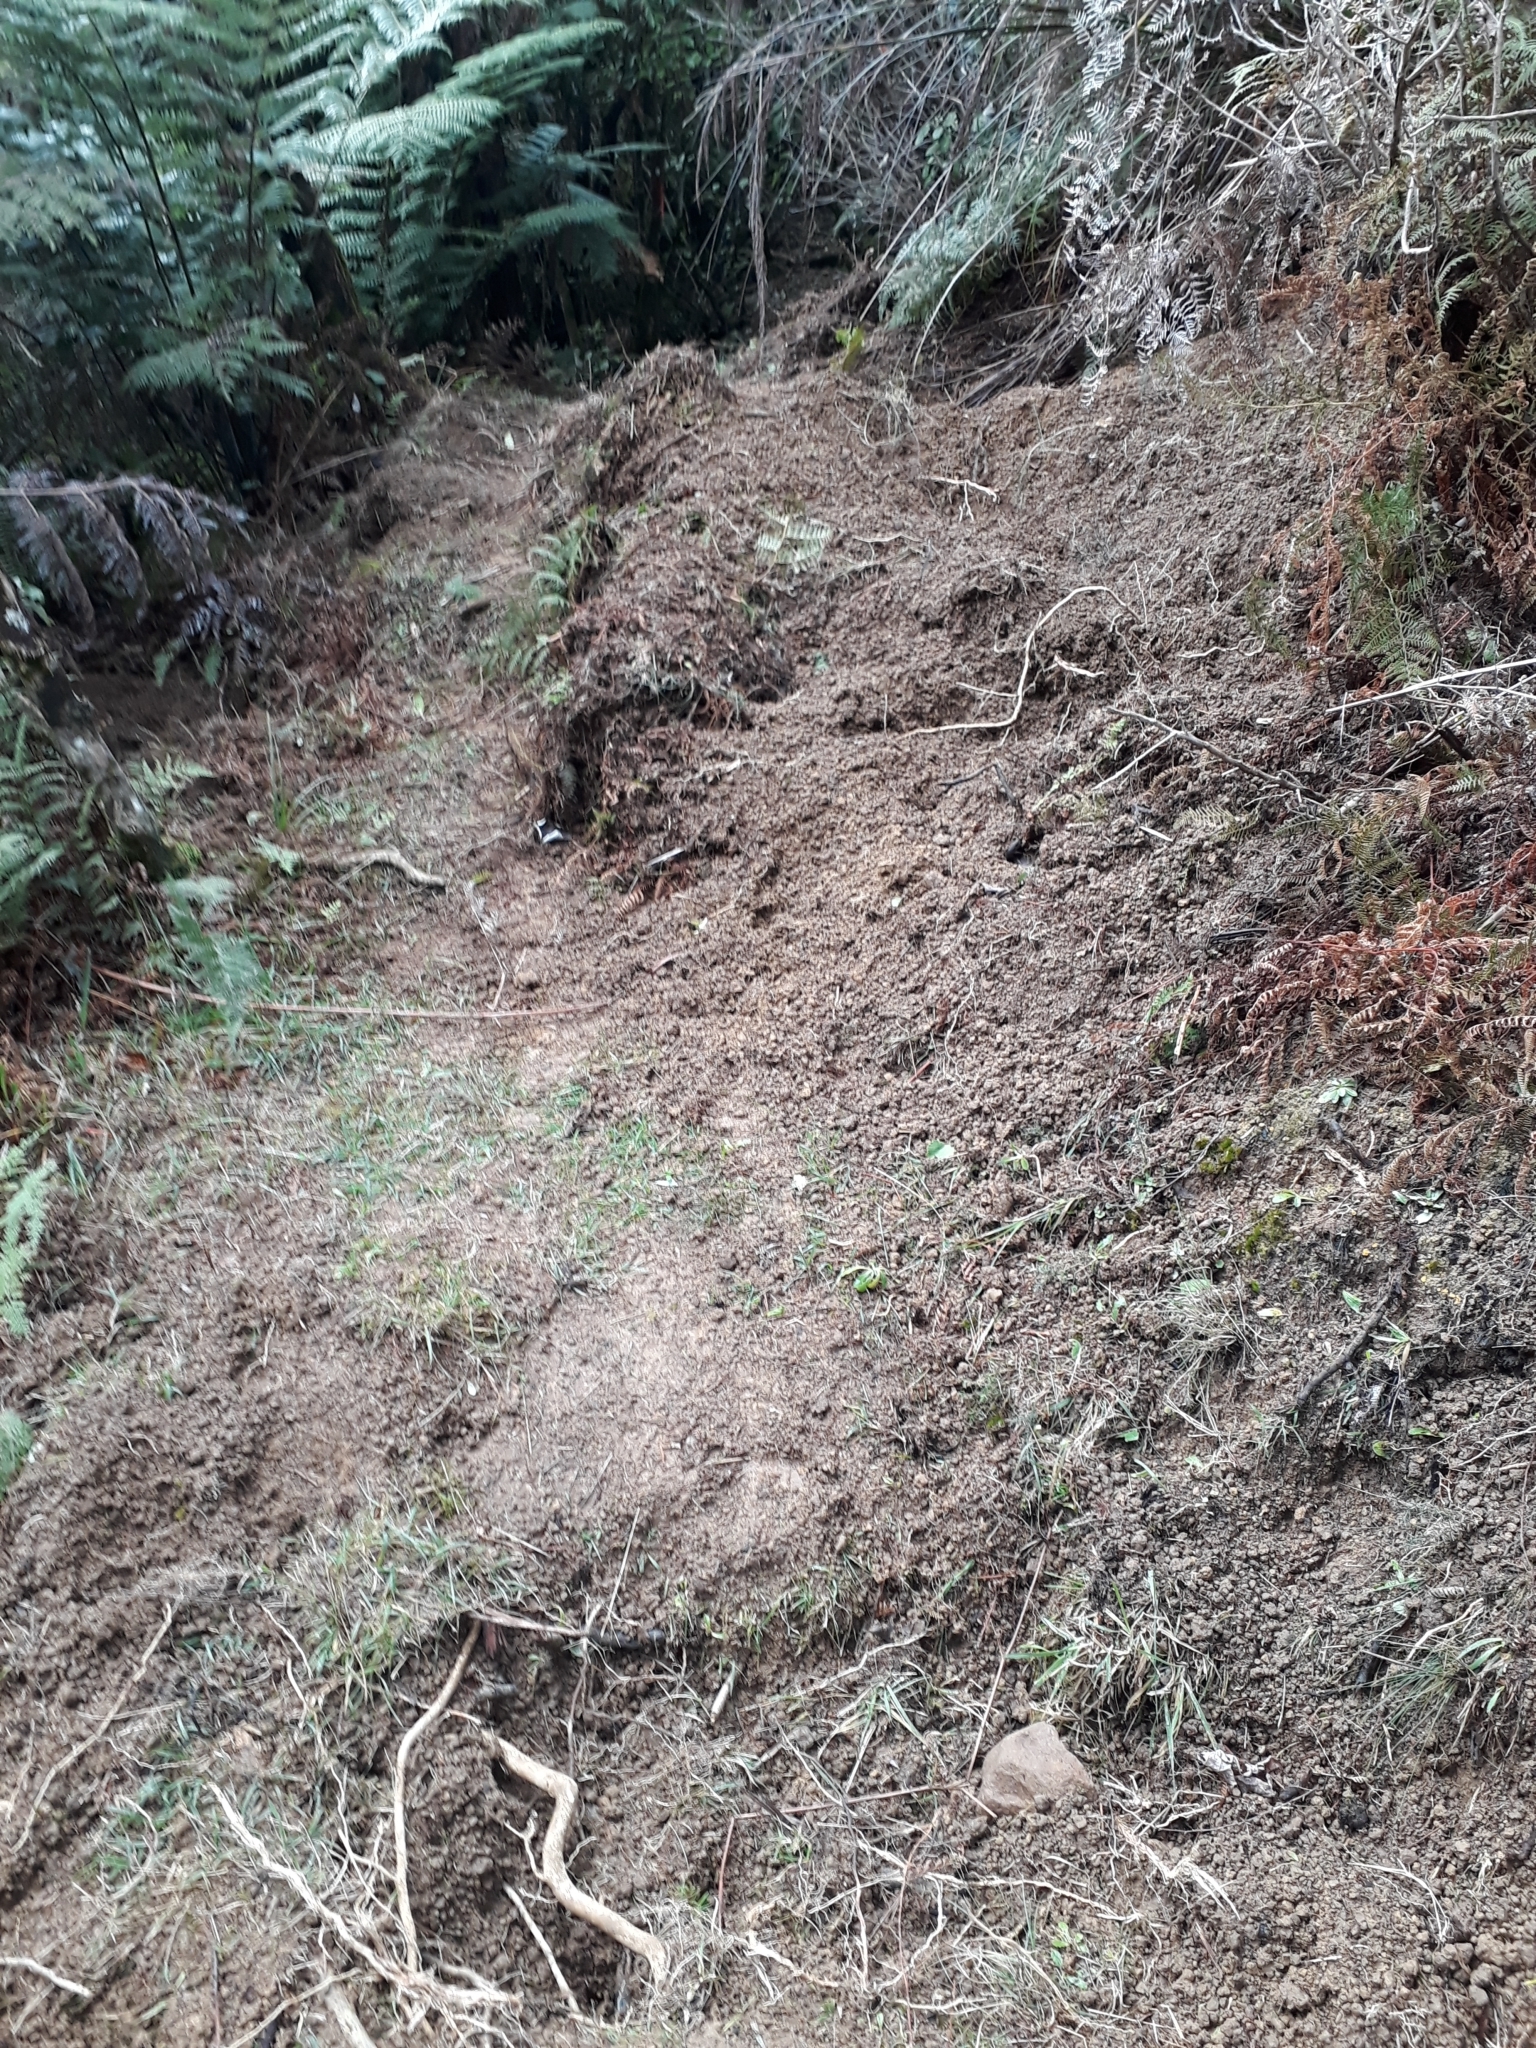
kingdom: Animalia
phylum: Chordata
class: Mammalia
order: Artiodactyla
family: Suidae
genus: Sus
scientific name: Sus scrofa
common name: Wild boar
